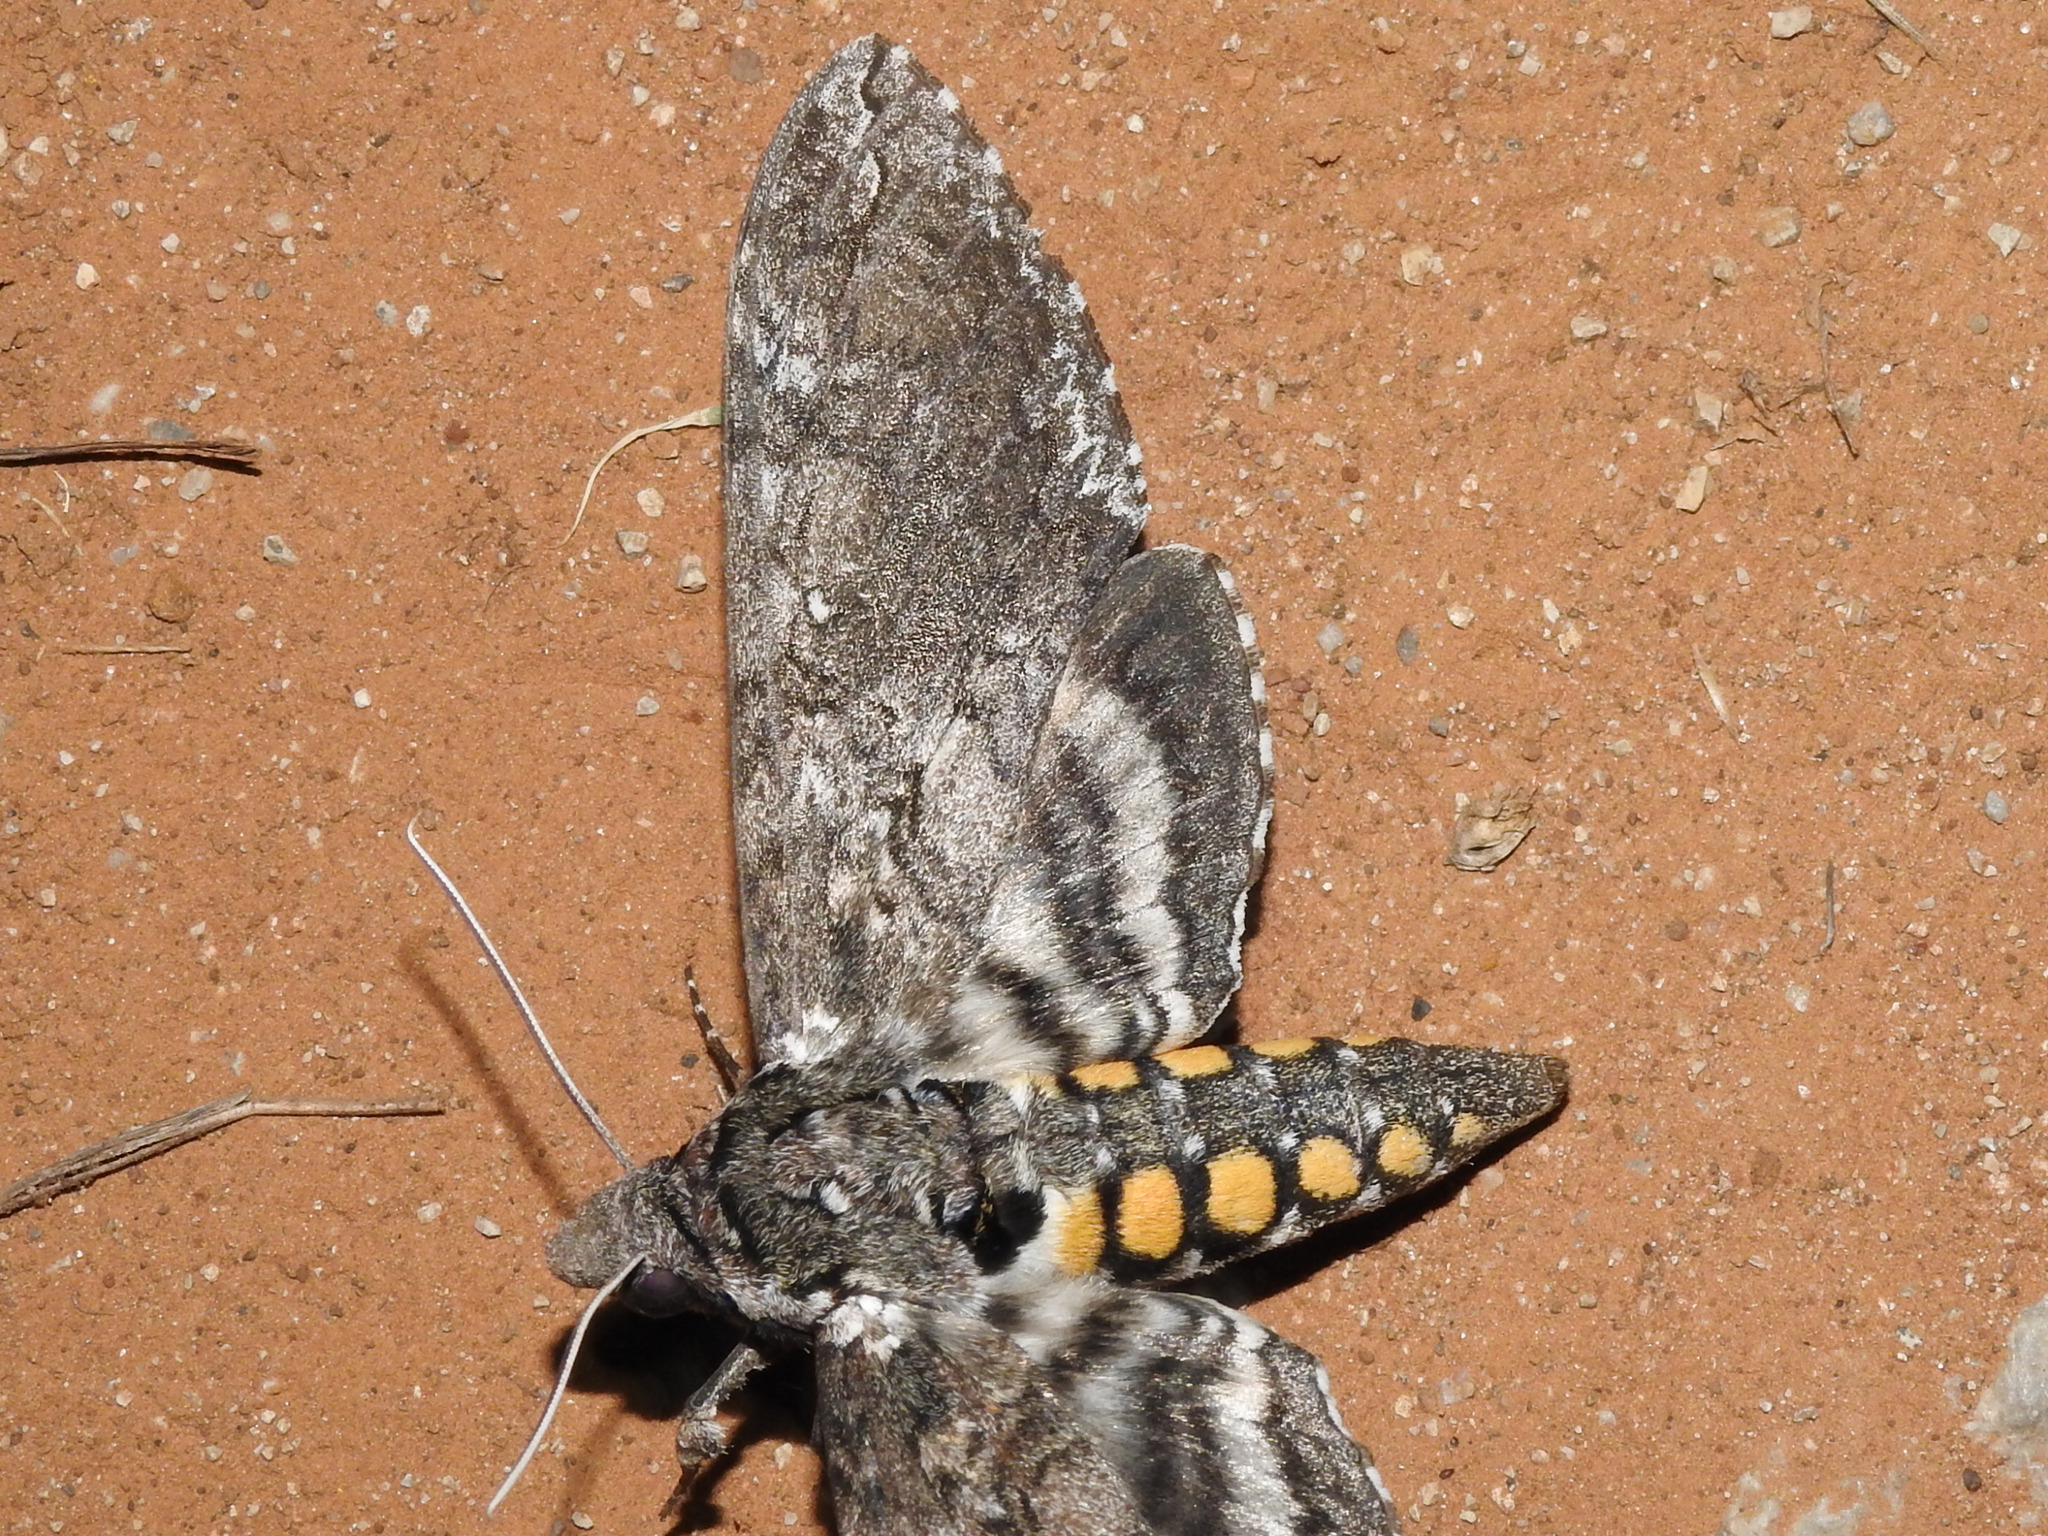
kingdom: Animalia
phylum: Arthropoda
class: Insecta
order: Lepidoptera
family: Sphingidae
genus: Manduca
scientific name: Manduca sexta
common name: Carolina sphinx
